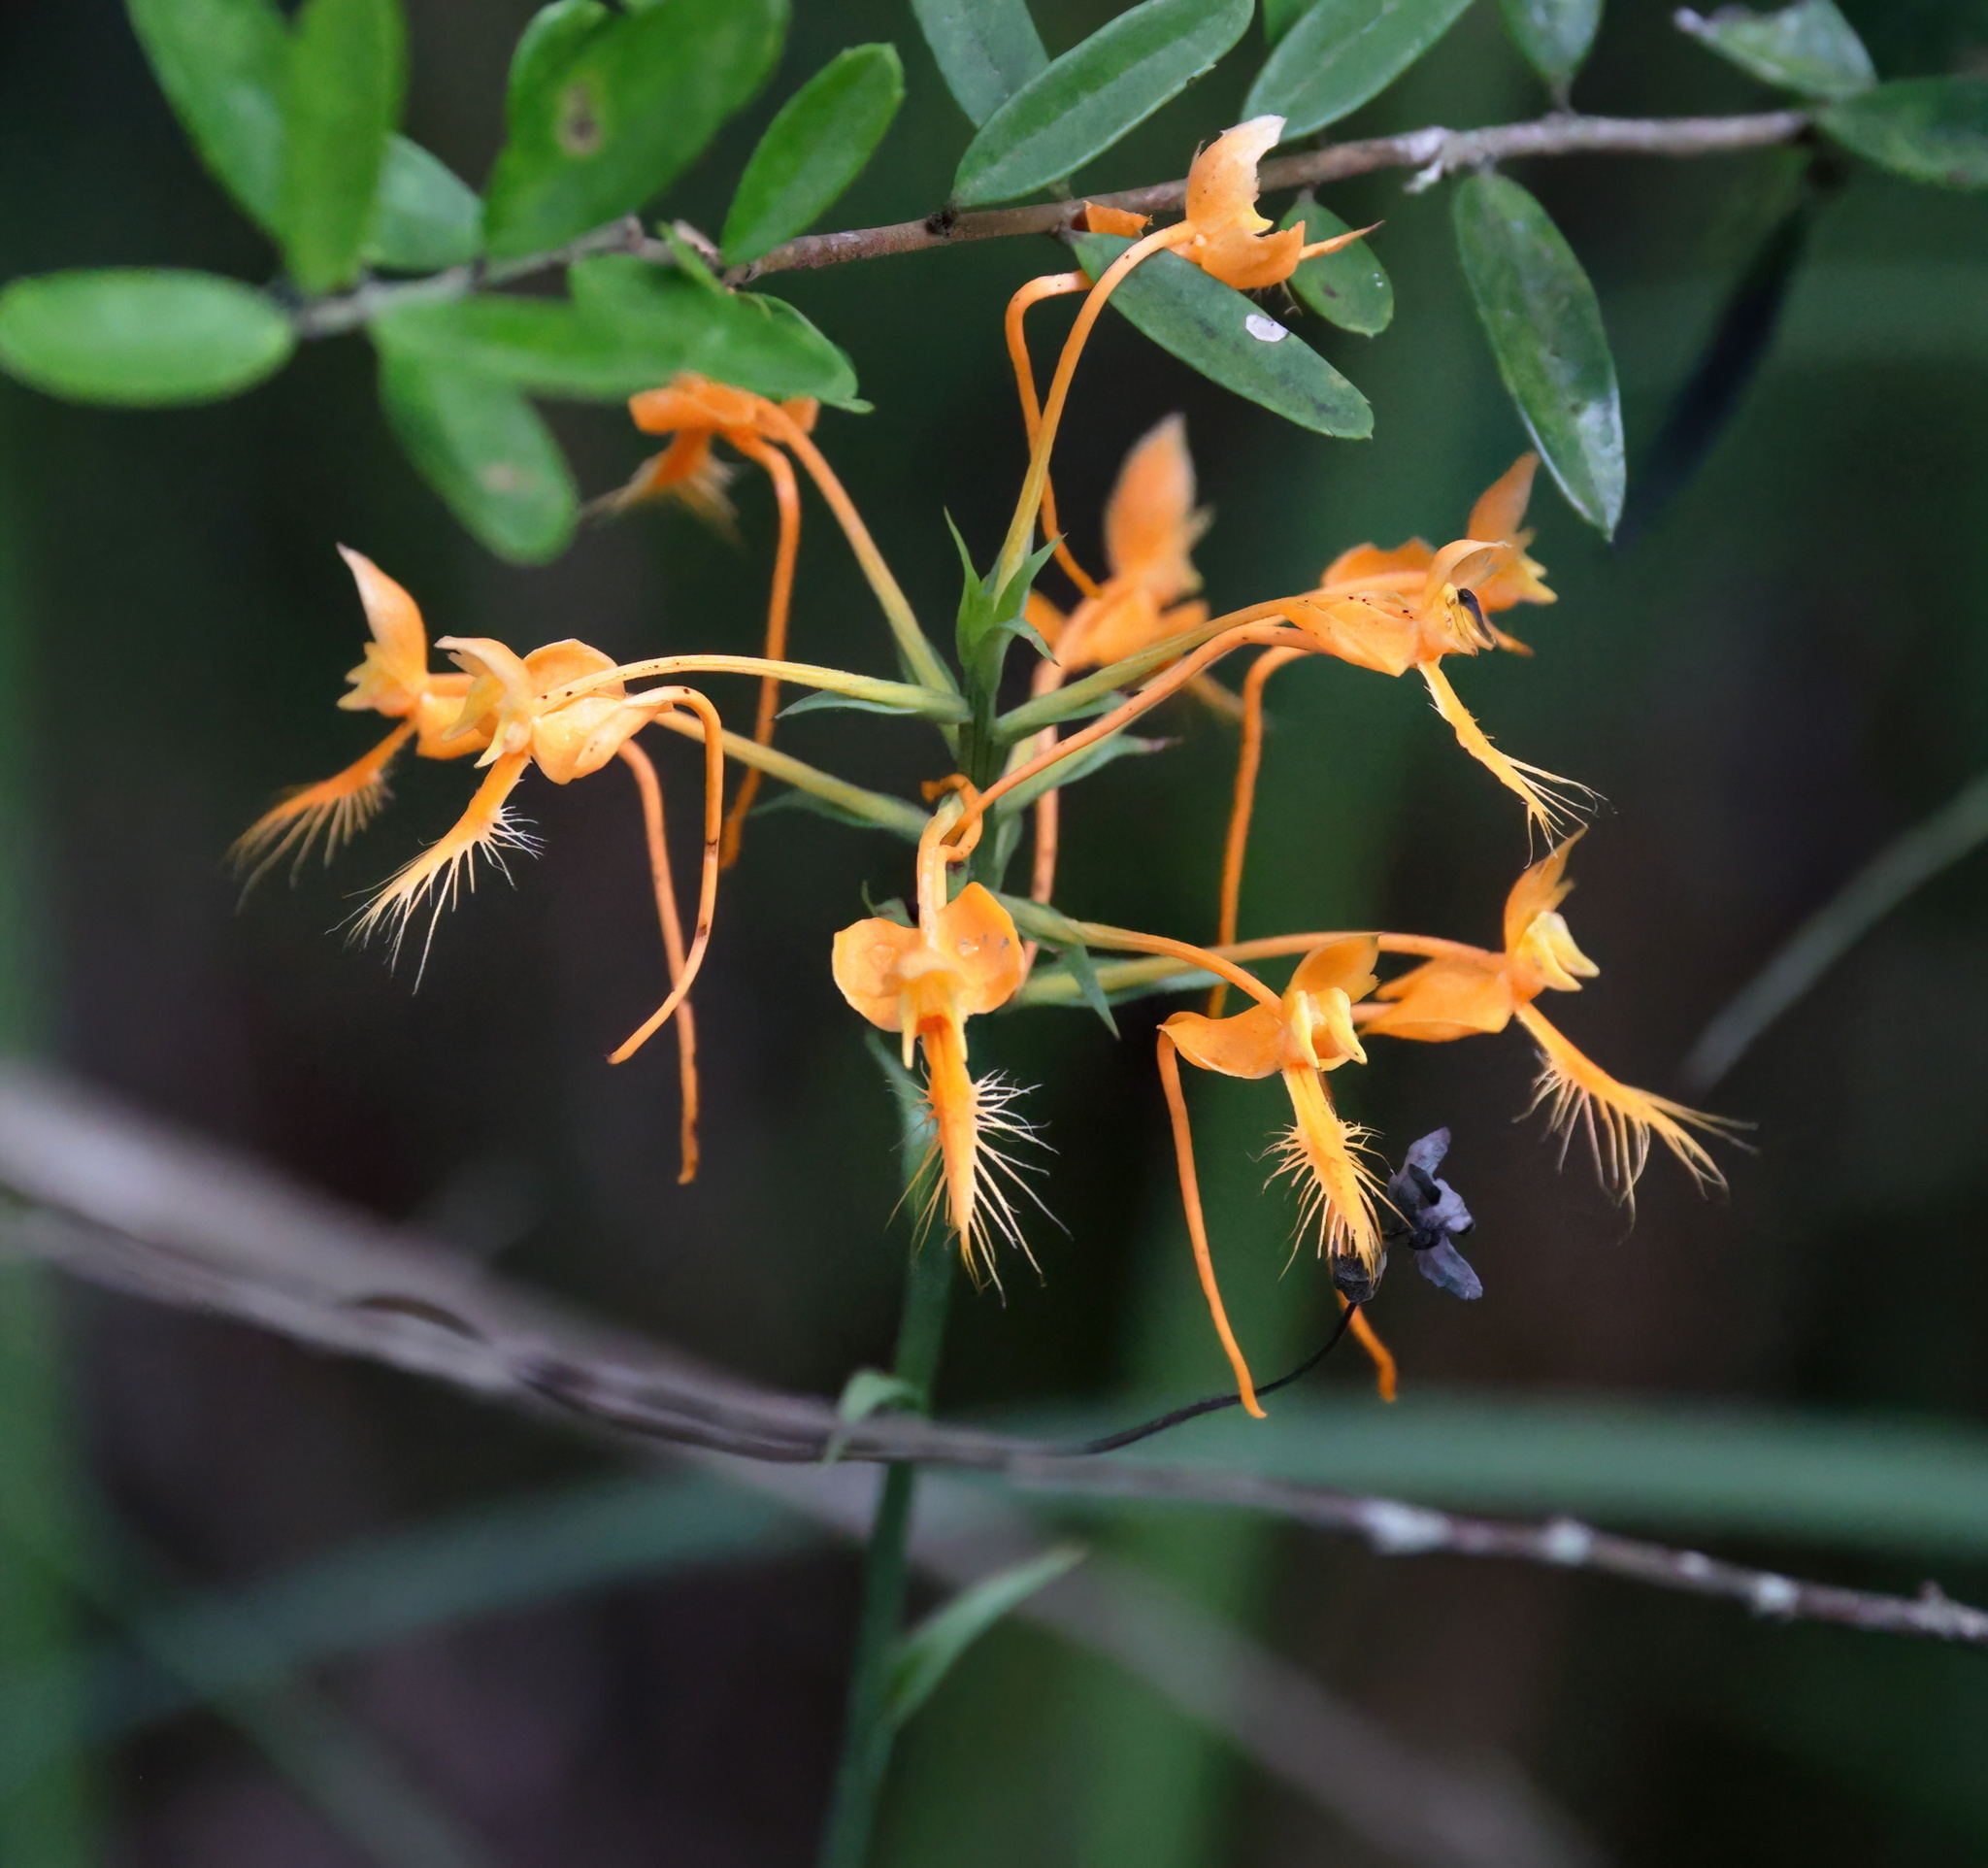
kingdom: Plantae
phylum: Tracheophyta
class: Liliopsida
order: Asparagales
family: Orchidaceae
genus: Platanthera
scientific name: Platanthera ciliaris
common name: Yellow fringed orchid
